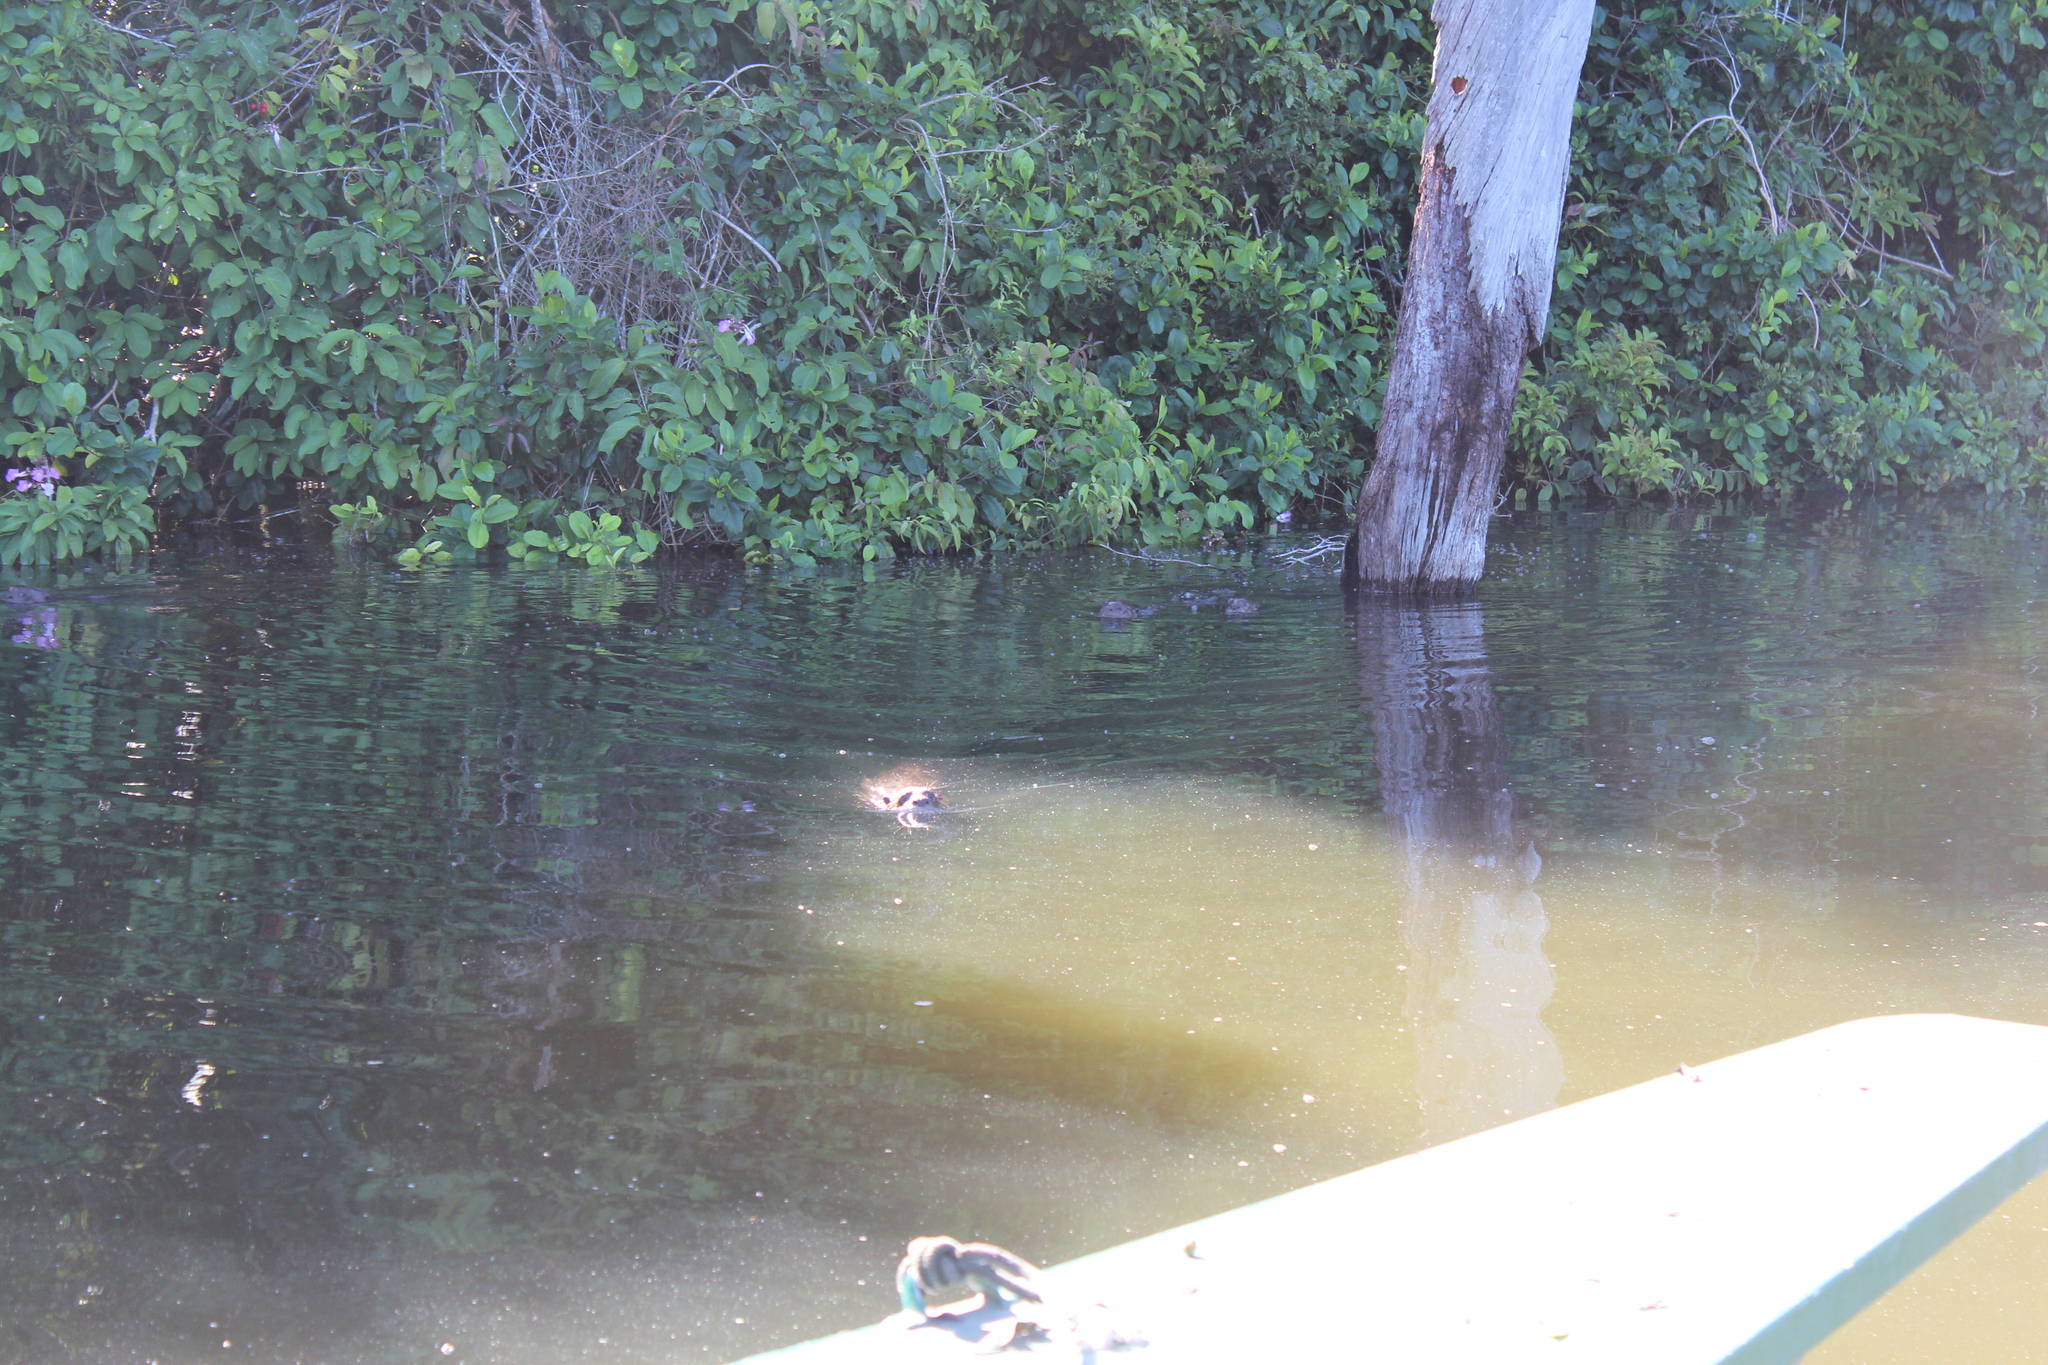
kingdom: Animalia
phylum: Chordata
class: Mammalia
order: Carnivora
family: Mustelidae
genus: Pteronura
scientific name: Pteronura brasiliensis
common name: Giant otter
